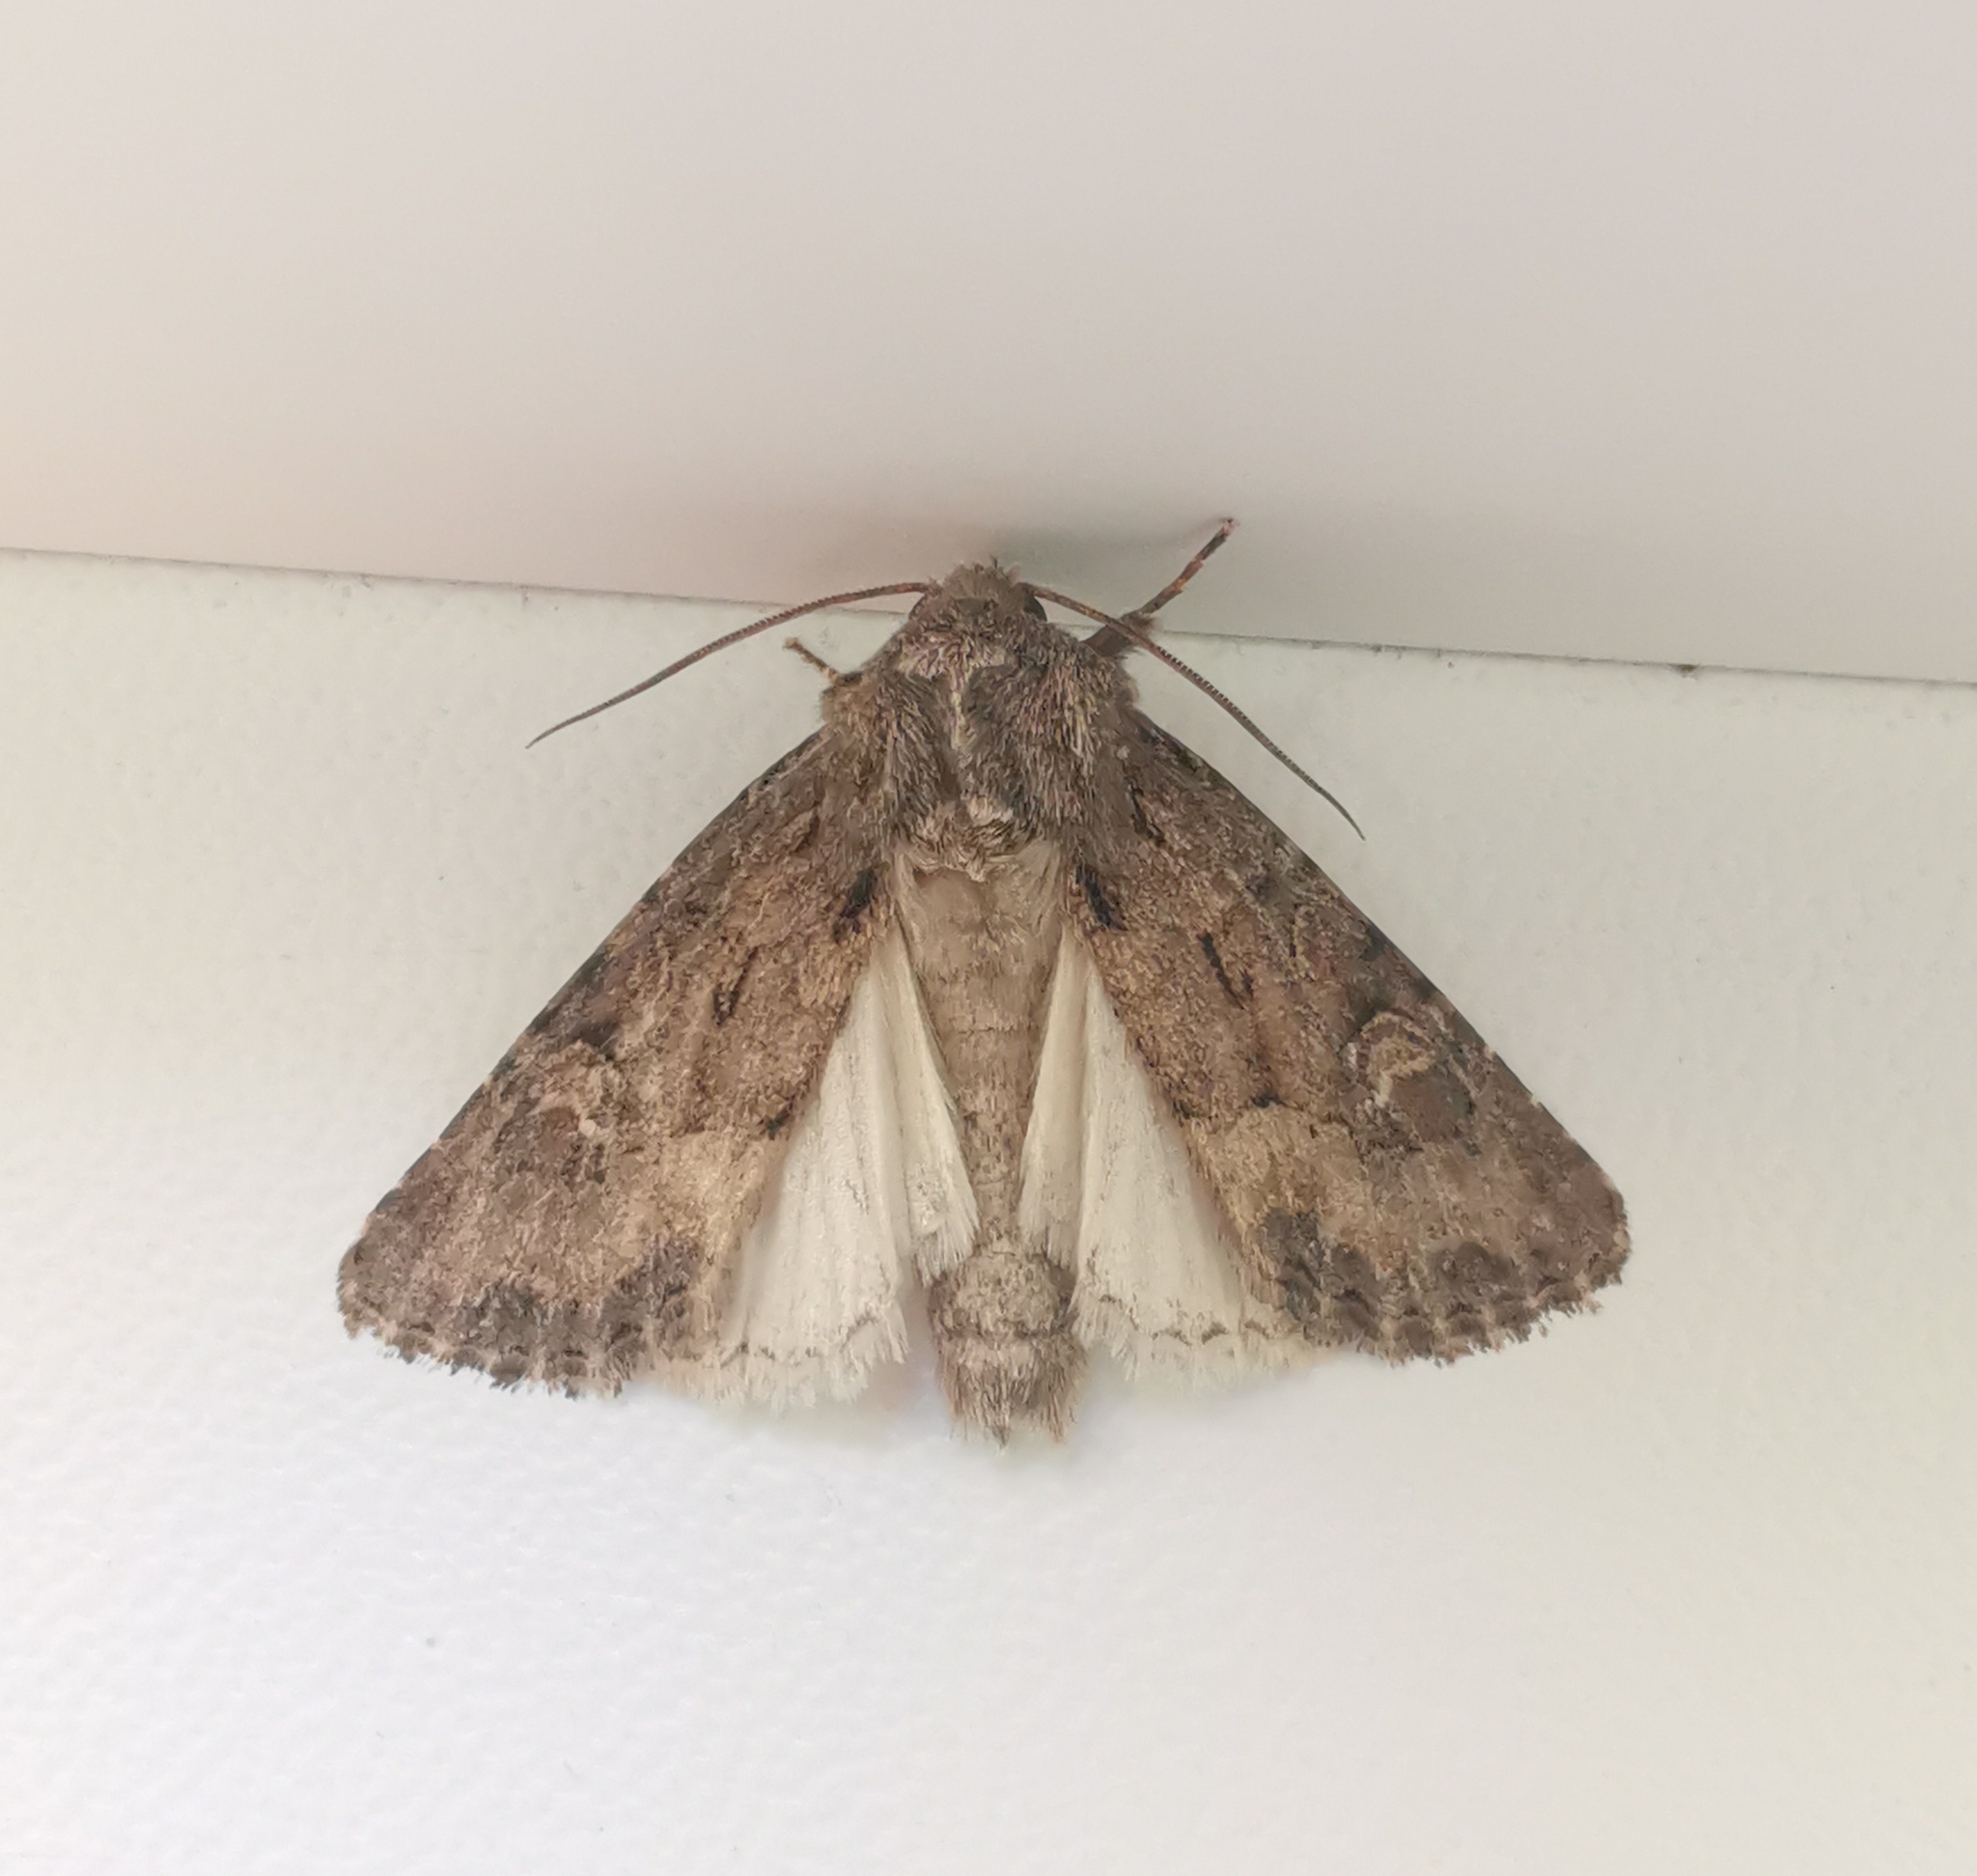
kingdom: Animalia
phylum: Arthropoda
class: Insecta
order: Lepidoptera
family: Noctuidae
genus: Luperina
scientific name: Luperina testacea
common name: Flounced rustic
